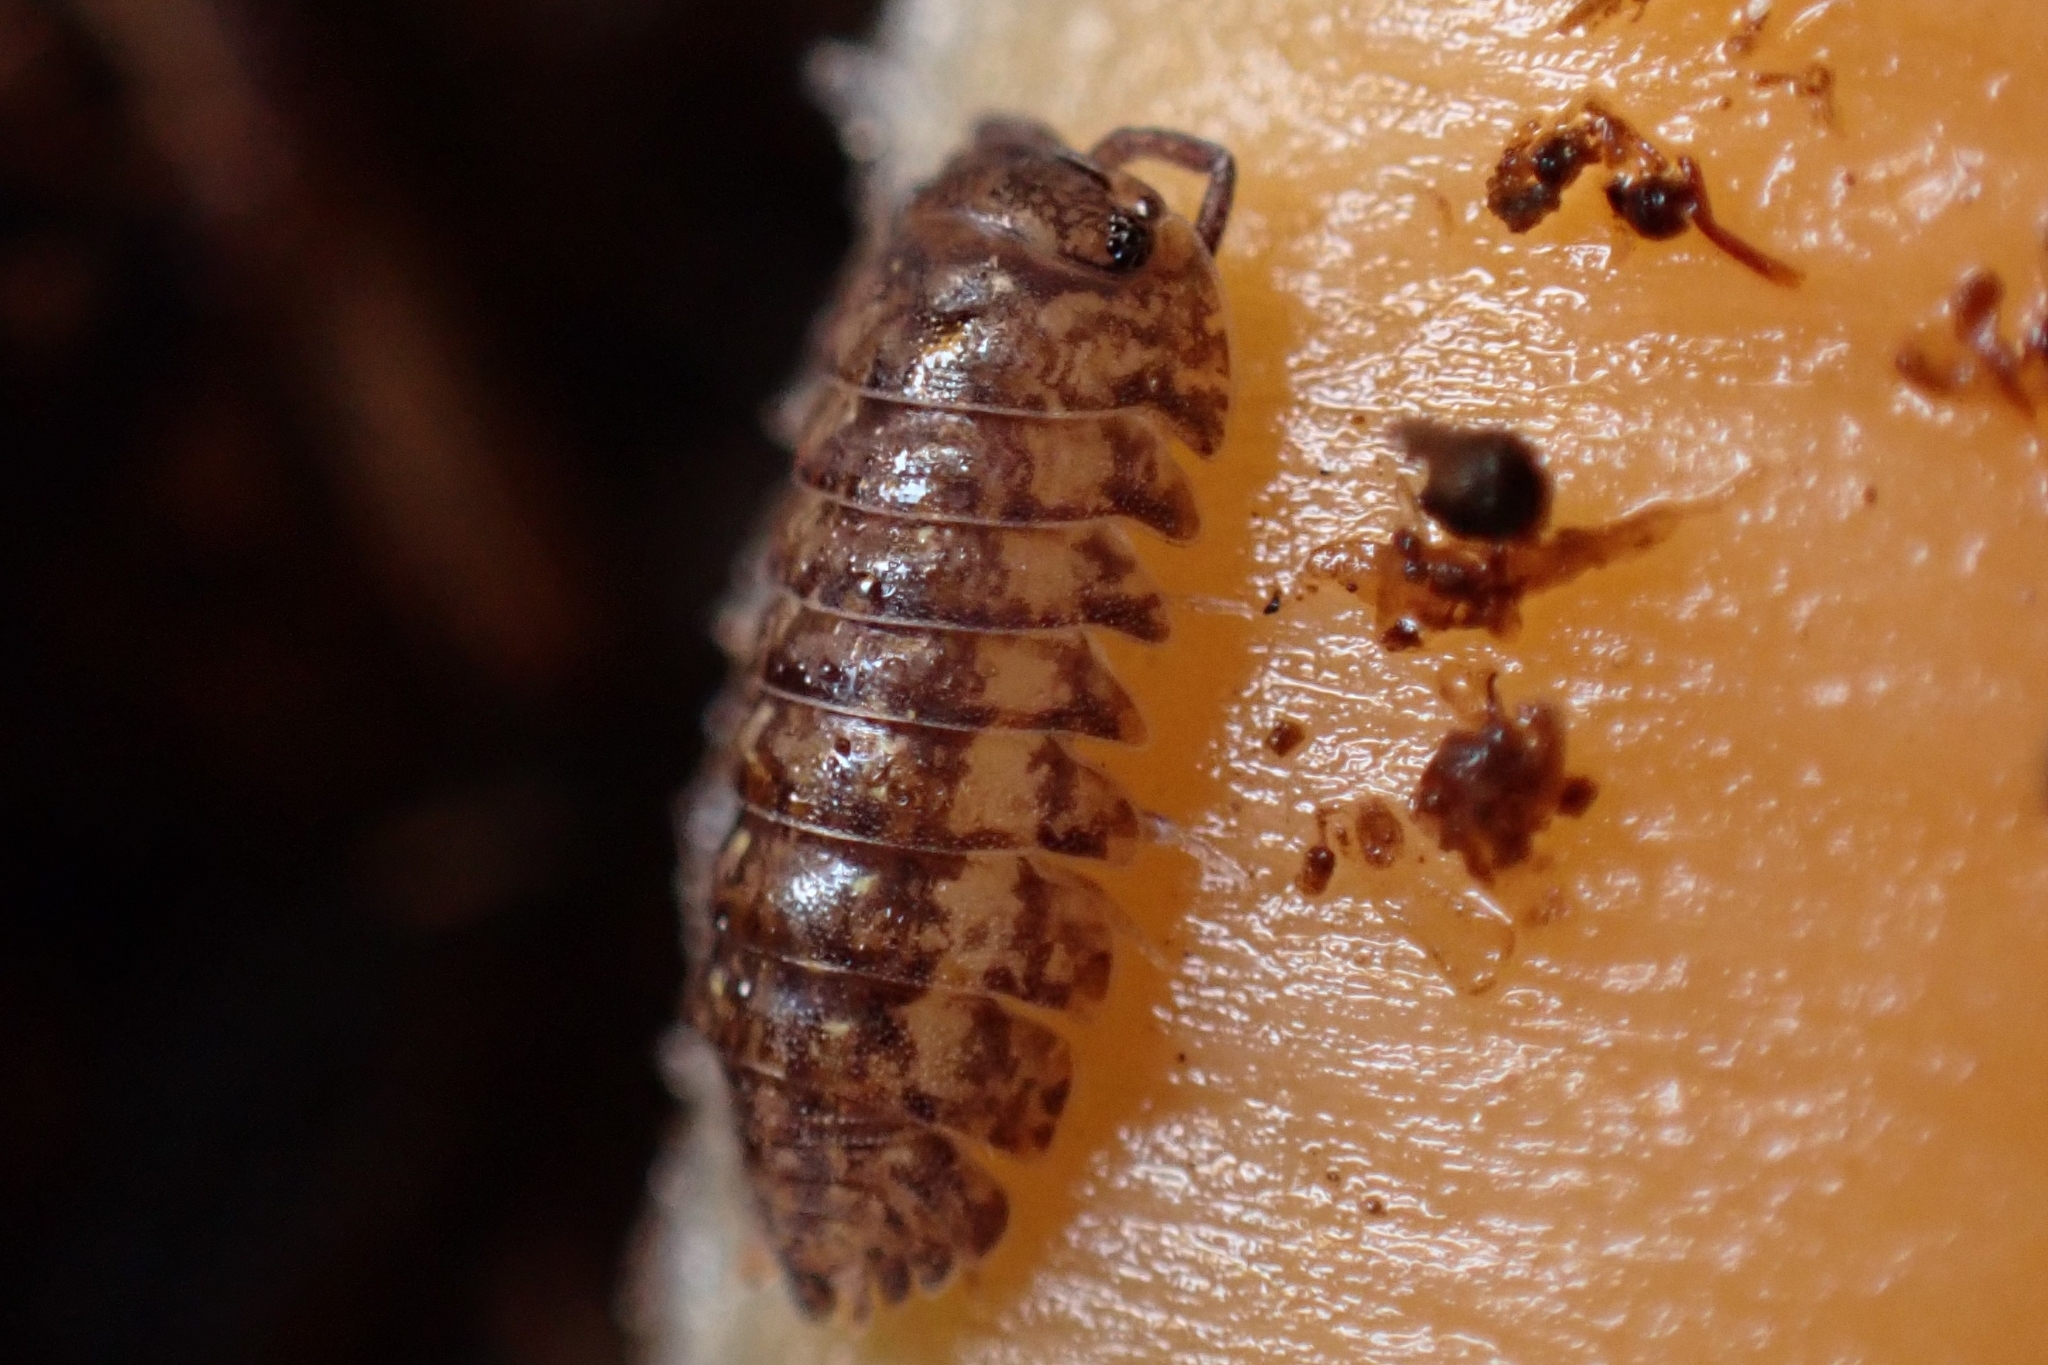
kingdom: Animalia
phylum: Arthropoda
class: Malacostraca
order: Isopoda
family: Armadillidae
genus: Cubaris
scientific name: Cubaris marmorata
